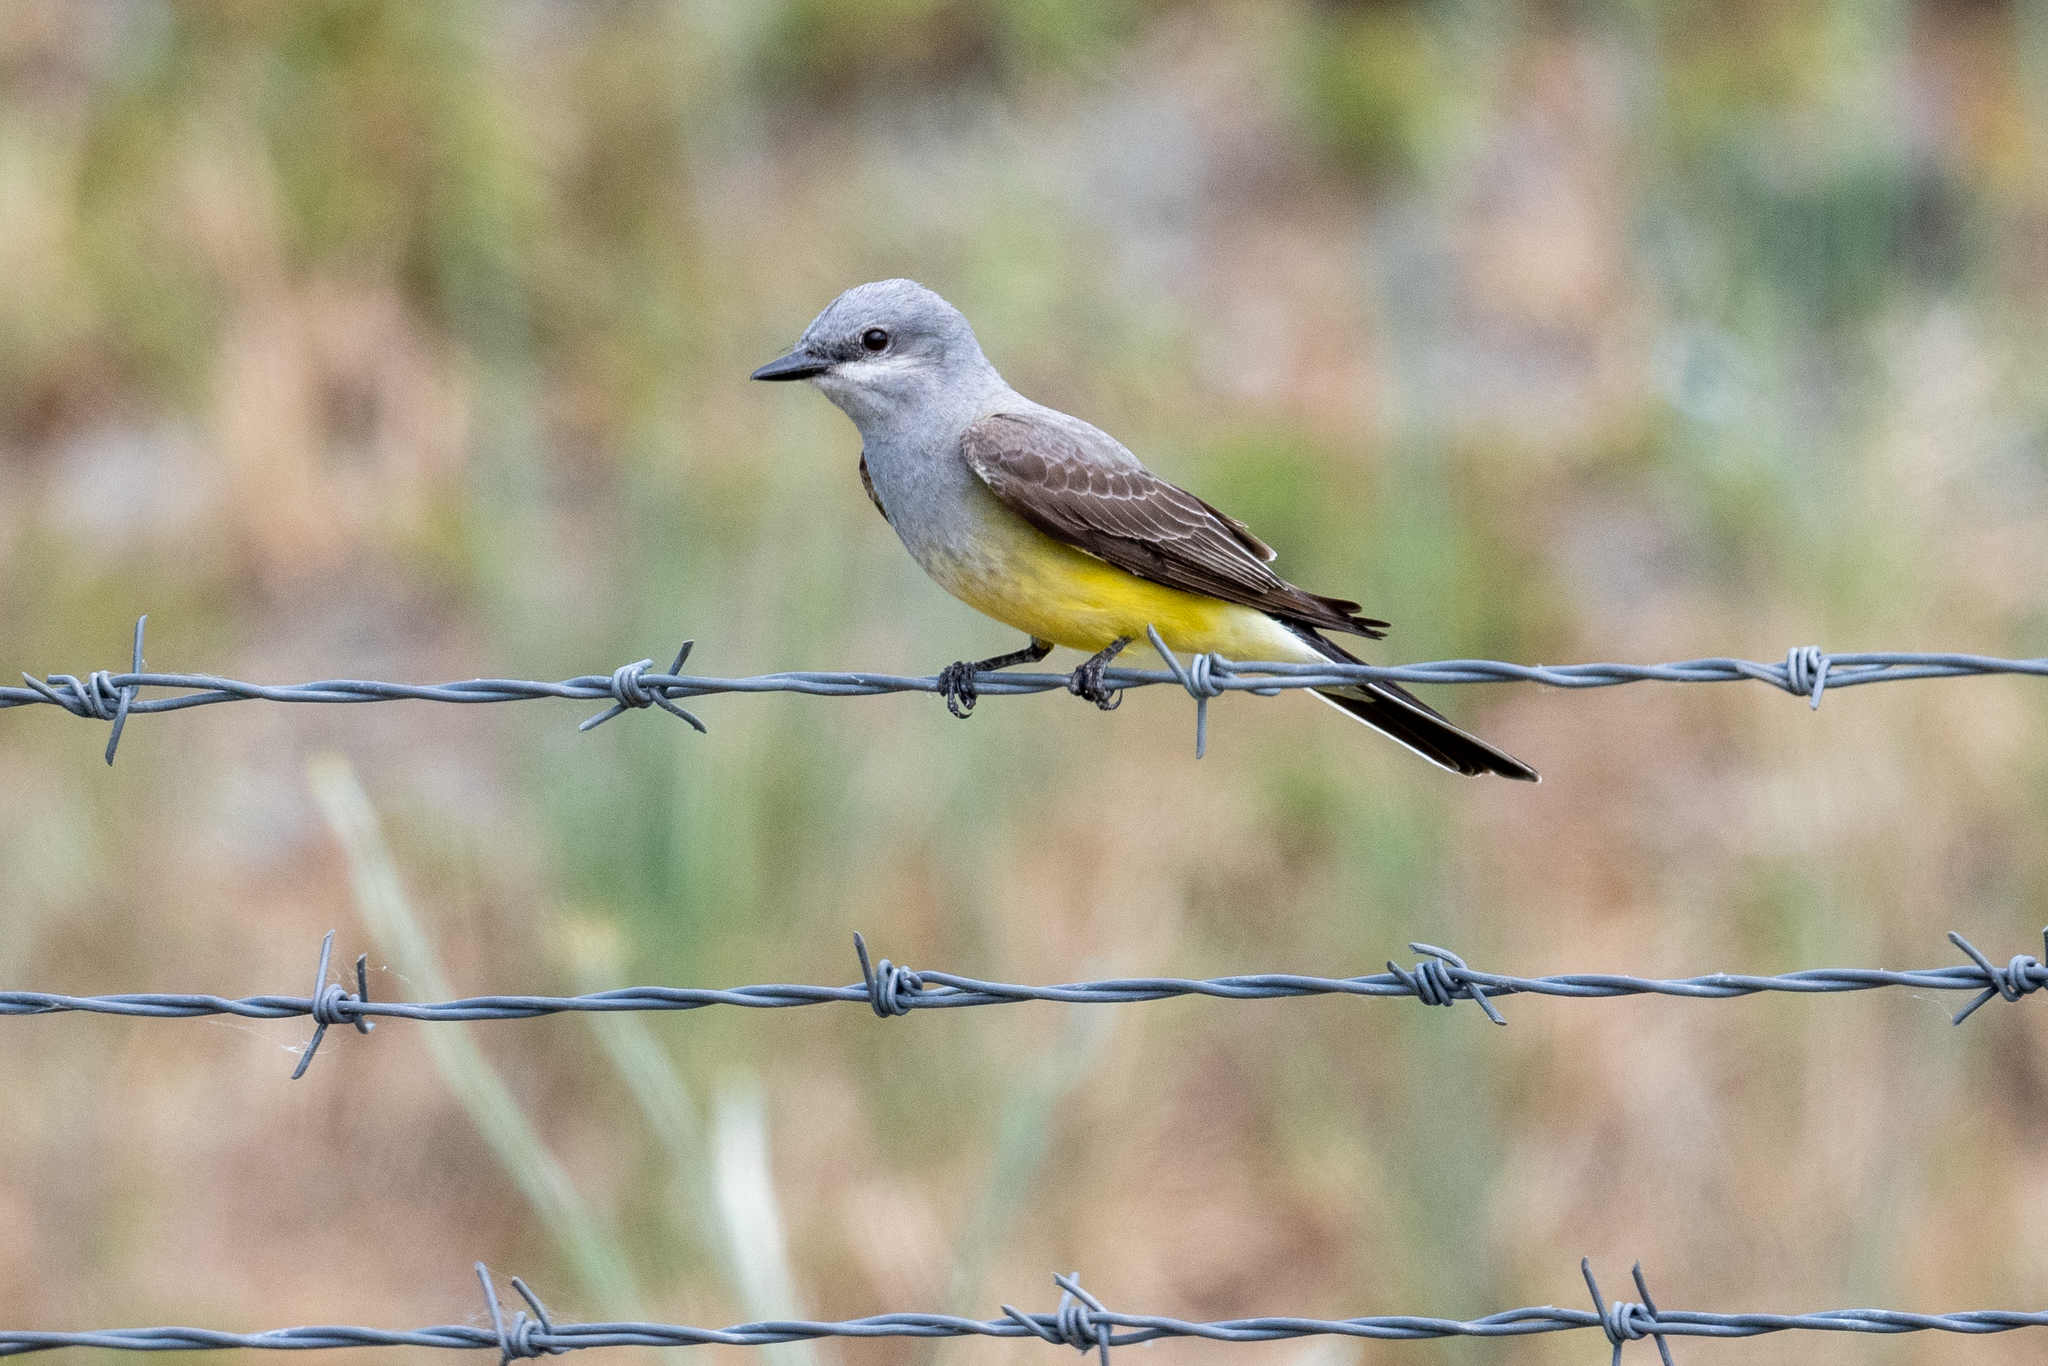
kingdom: Animalia
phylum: Chordata
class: Aves
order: Passeriformes
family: Tyrannidae
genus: Tyrannus
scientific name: Tyrannus verticalis
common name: Western kingbird
